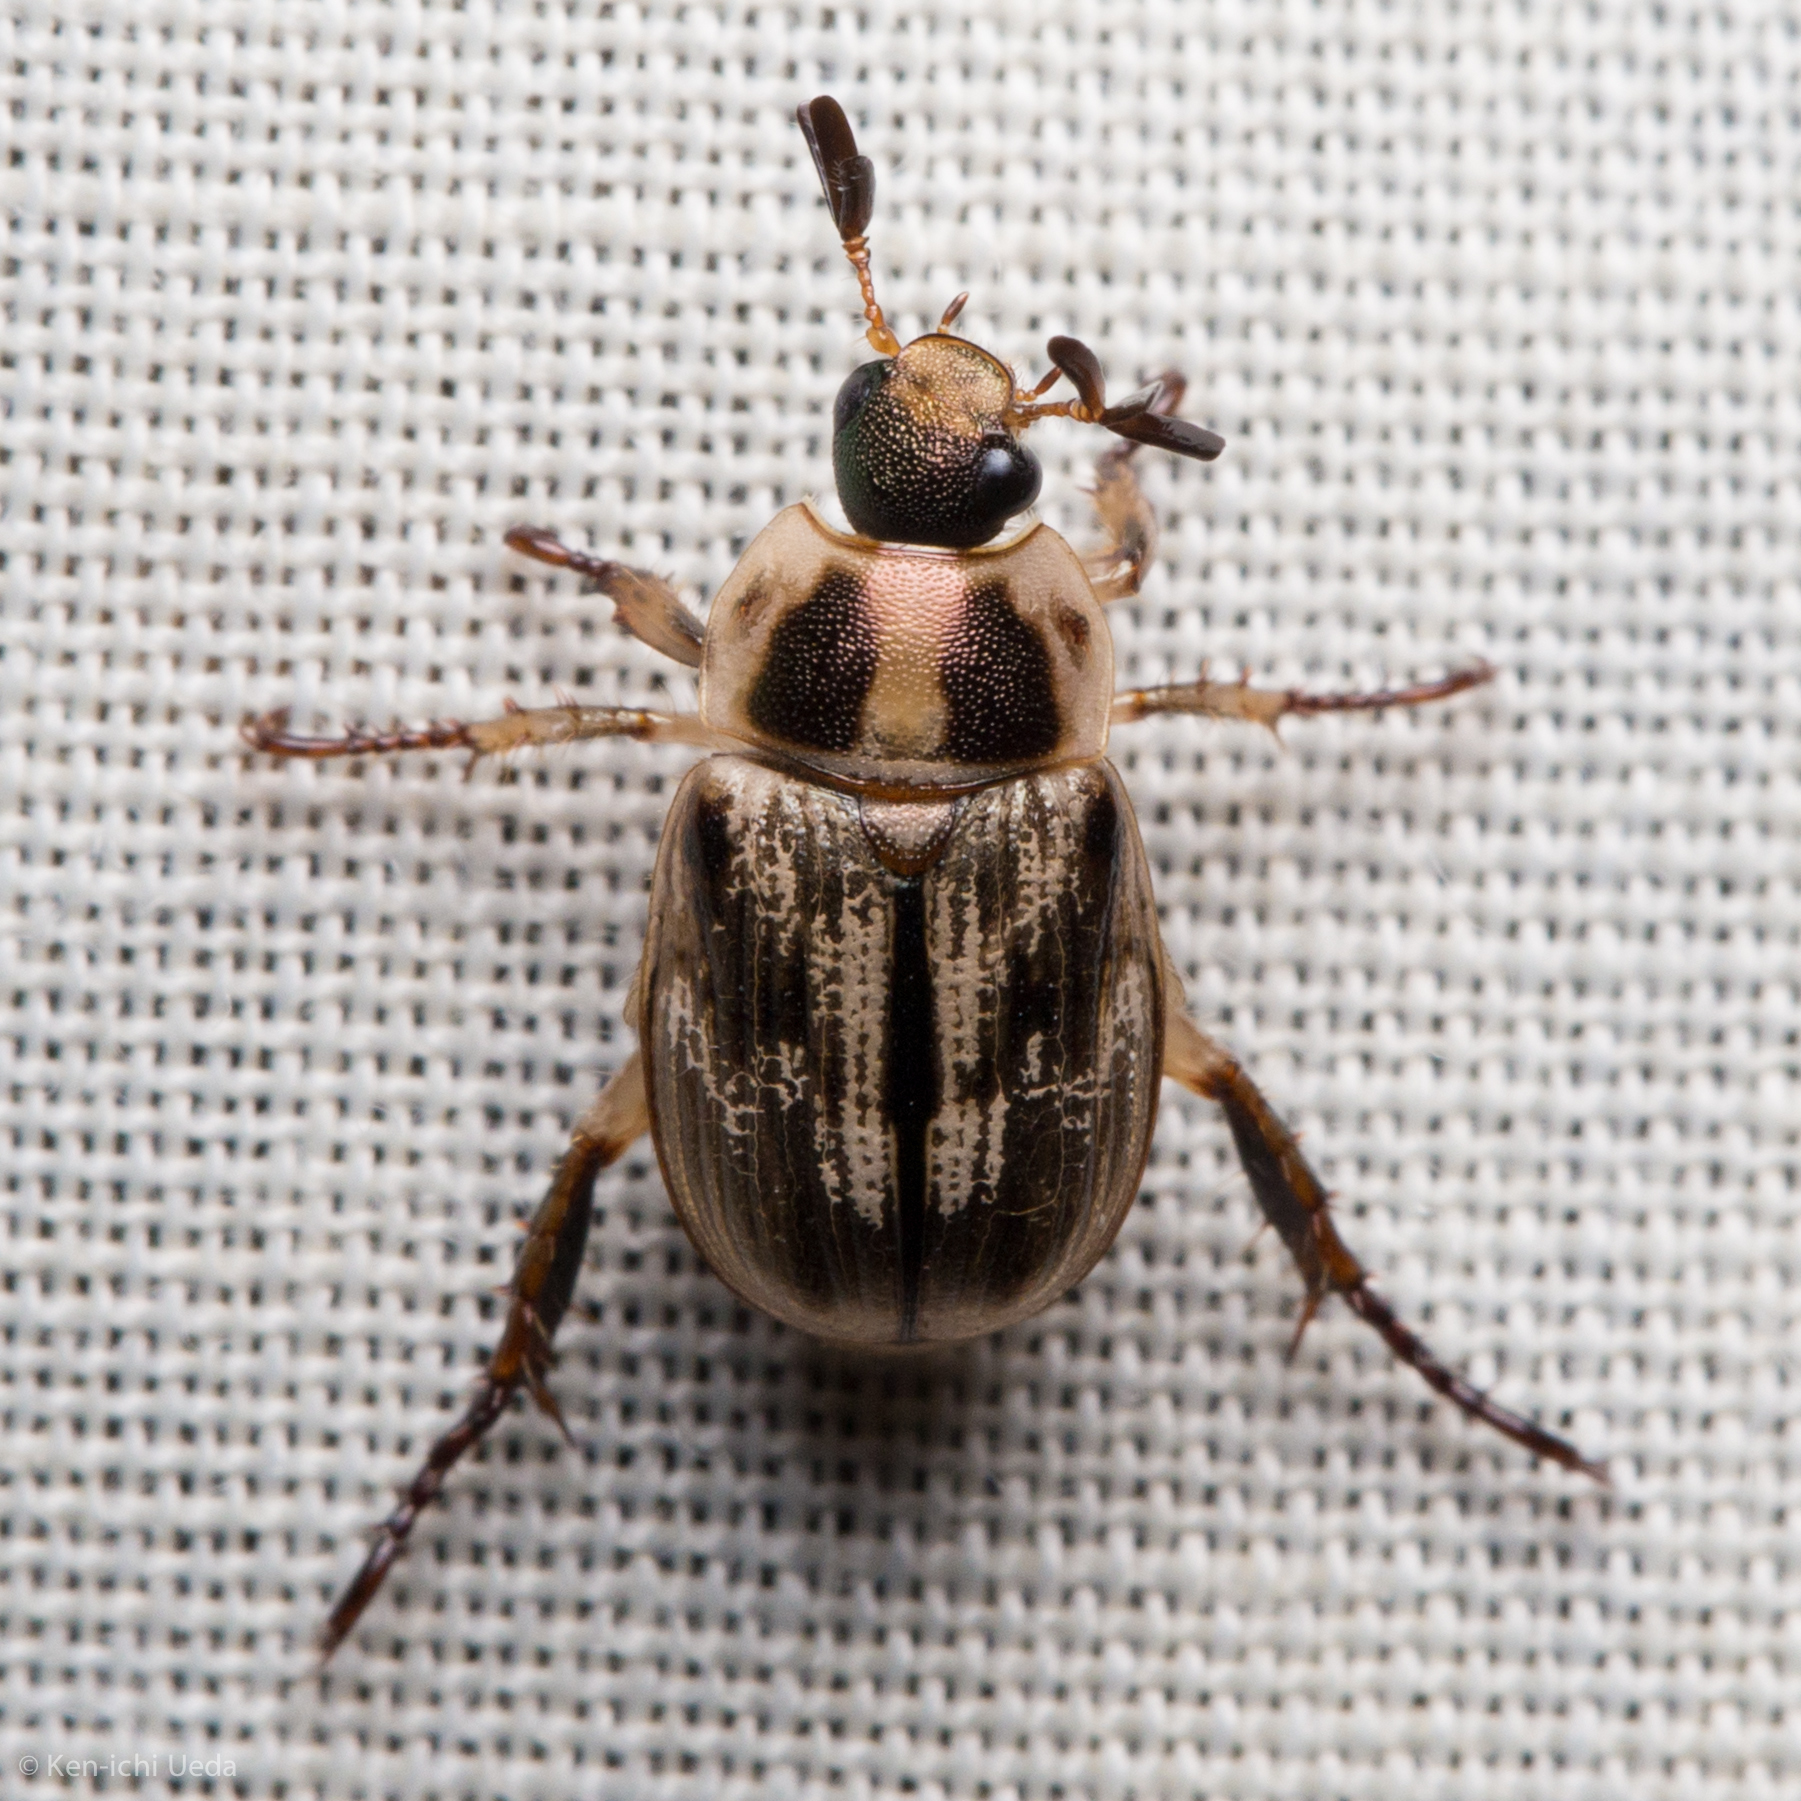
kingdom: Animalia
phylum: Arthropoda
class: Insecta
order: Coleoptera
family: Scarabaeidae
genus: Exomala
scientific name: Exomala orientalis
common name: Oriental beetle
